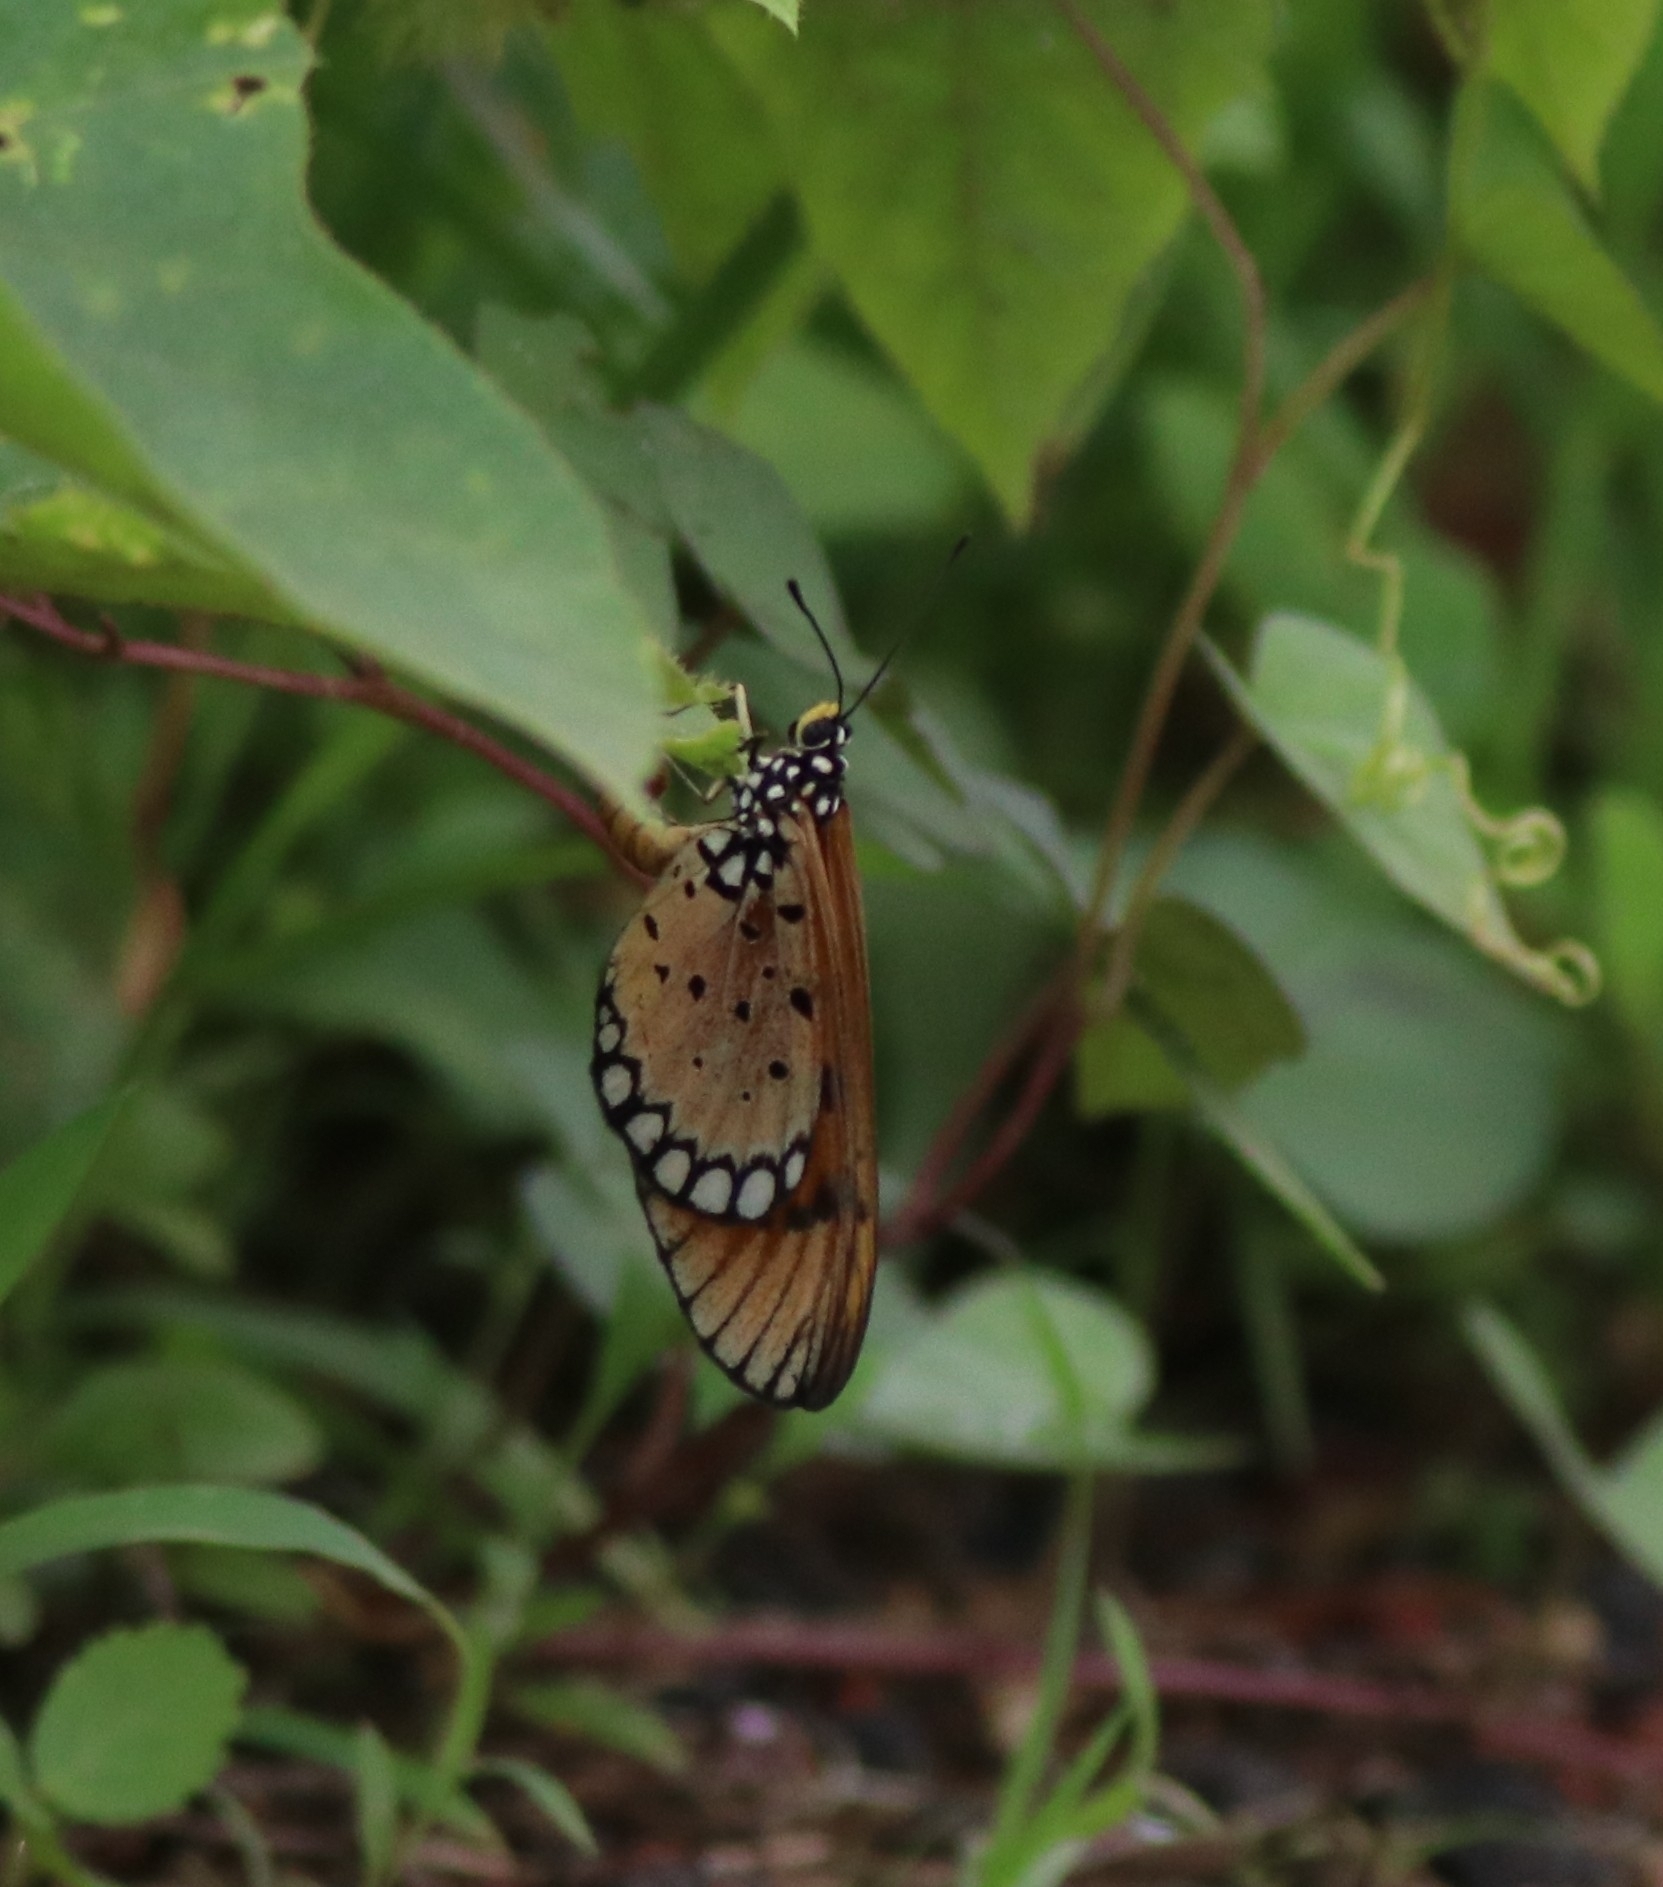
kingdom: Animalia
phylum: Arthropoda
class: Insecta
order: Lepidoptera
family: Nymphalidae
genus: Acraea
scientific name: Acraea terpsicore
